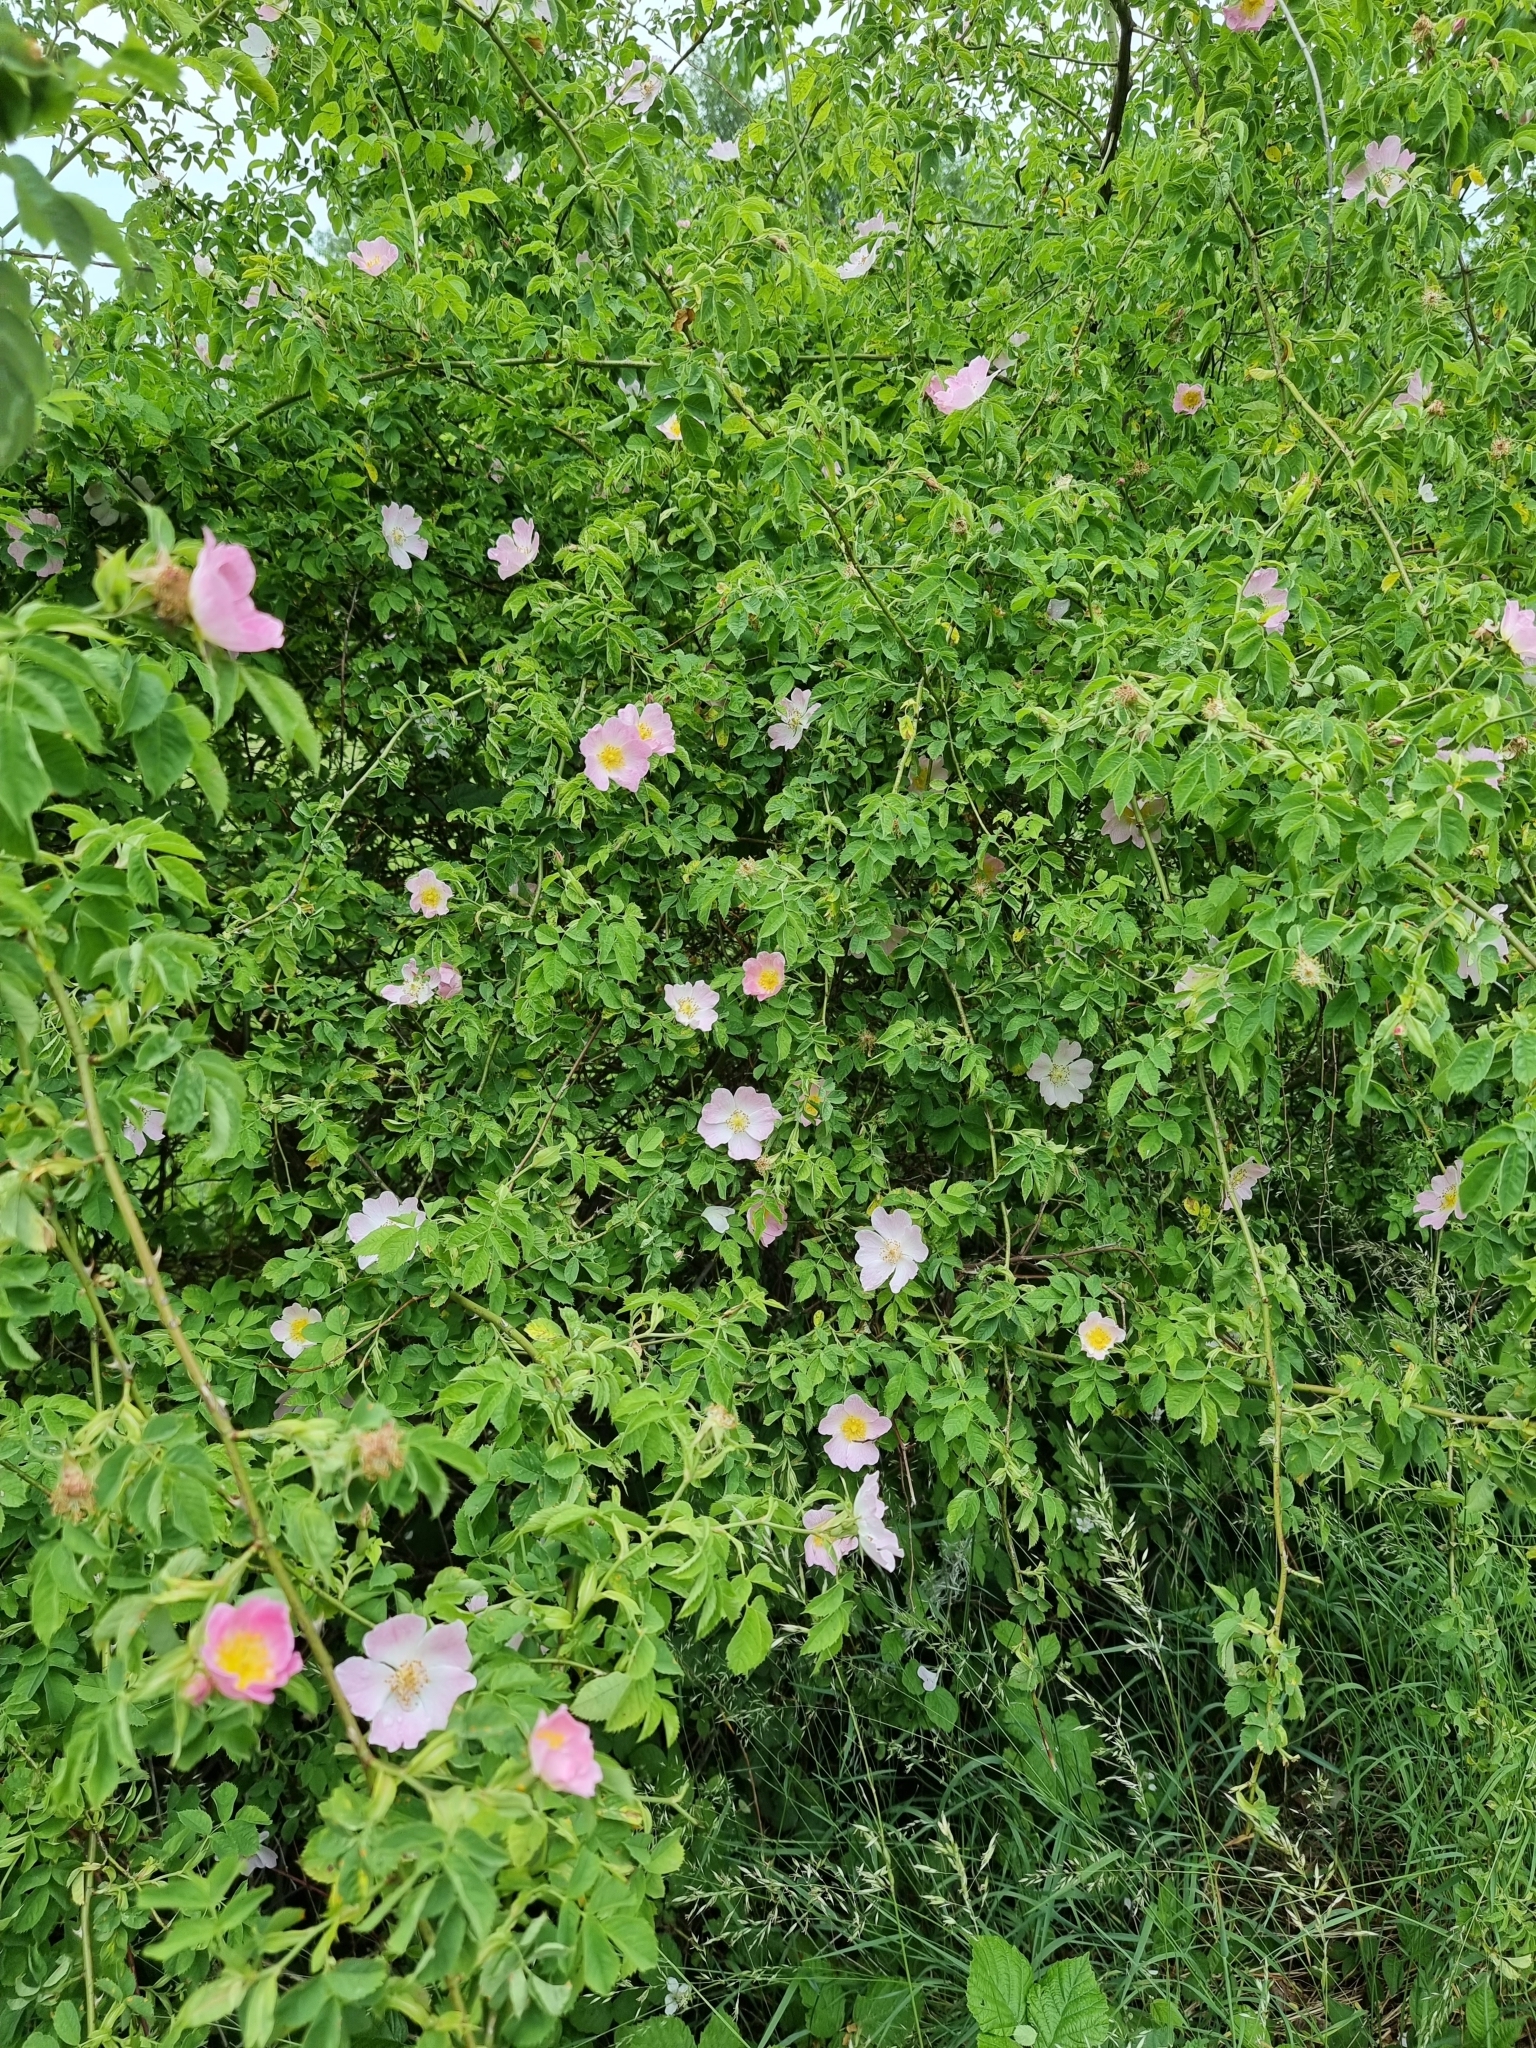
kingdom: Plantae
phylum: Tracheophyta
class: Magnoliopsida
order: Rosales
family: Rosaceae
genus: Rosa
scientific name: Rosa canina
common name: Dog rose
